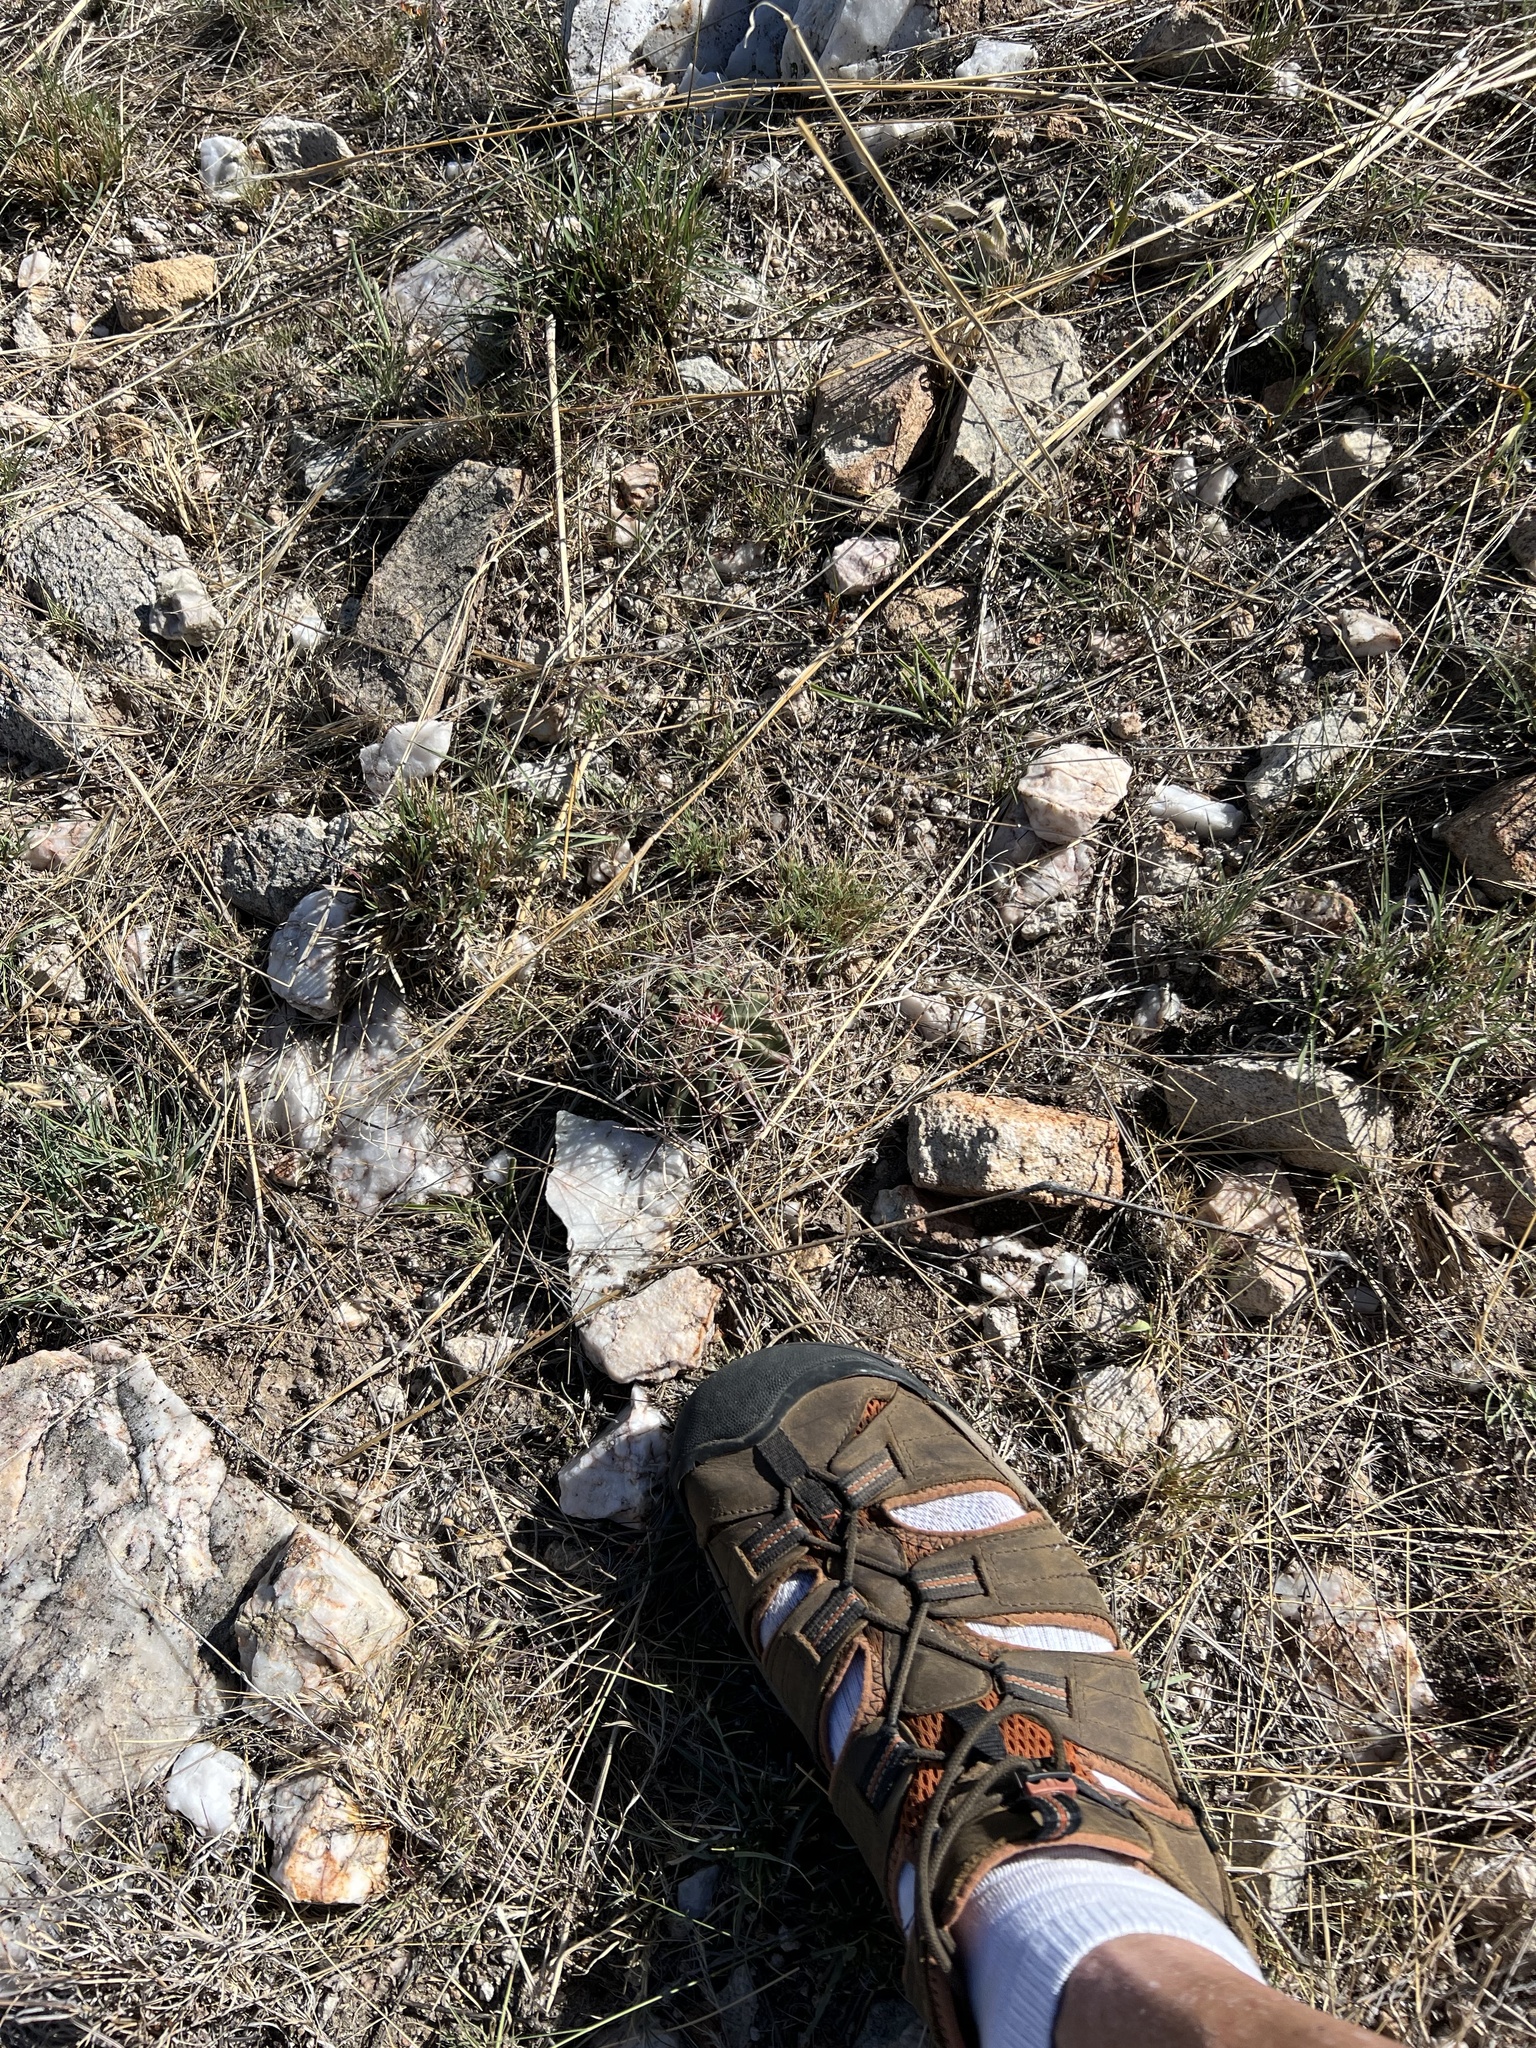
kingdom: Plantae
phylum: Tracheophyta
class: Magnoliopsida
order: Caryophyllales
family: Cactaceae
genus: Ferocactus
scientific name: Ferocactus wislizeni
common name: Candy barrel cactus
